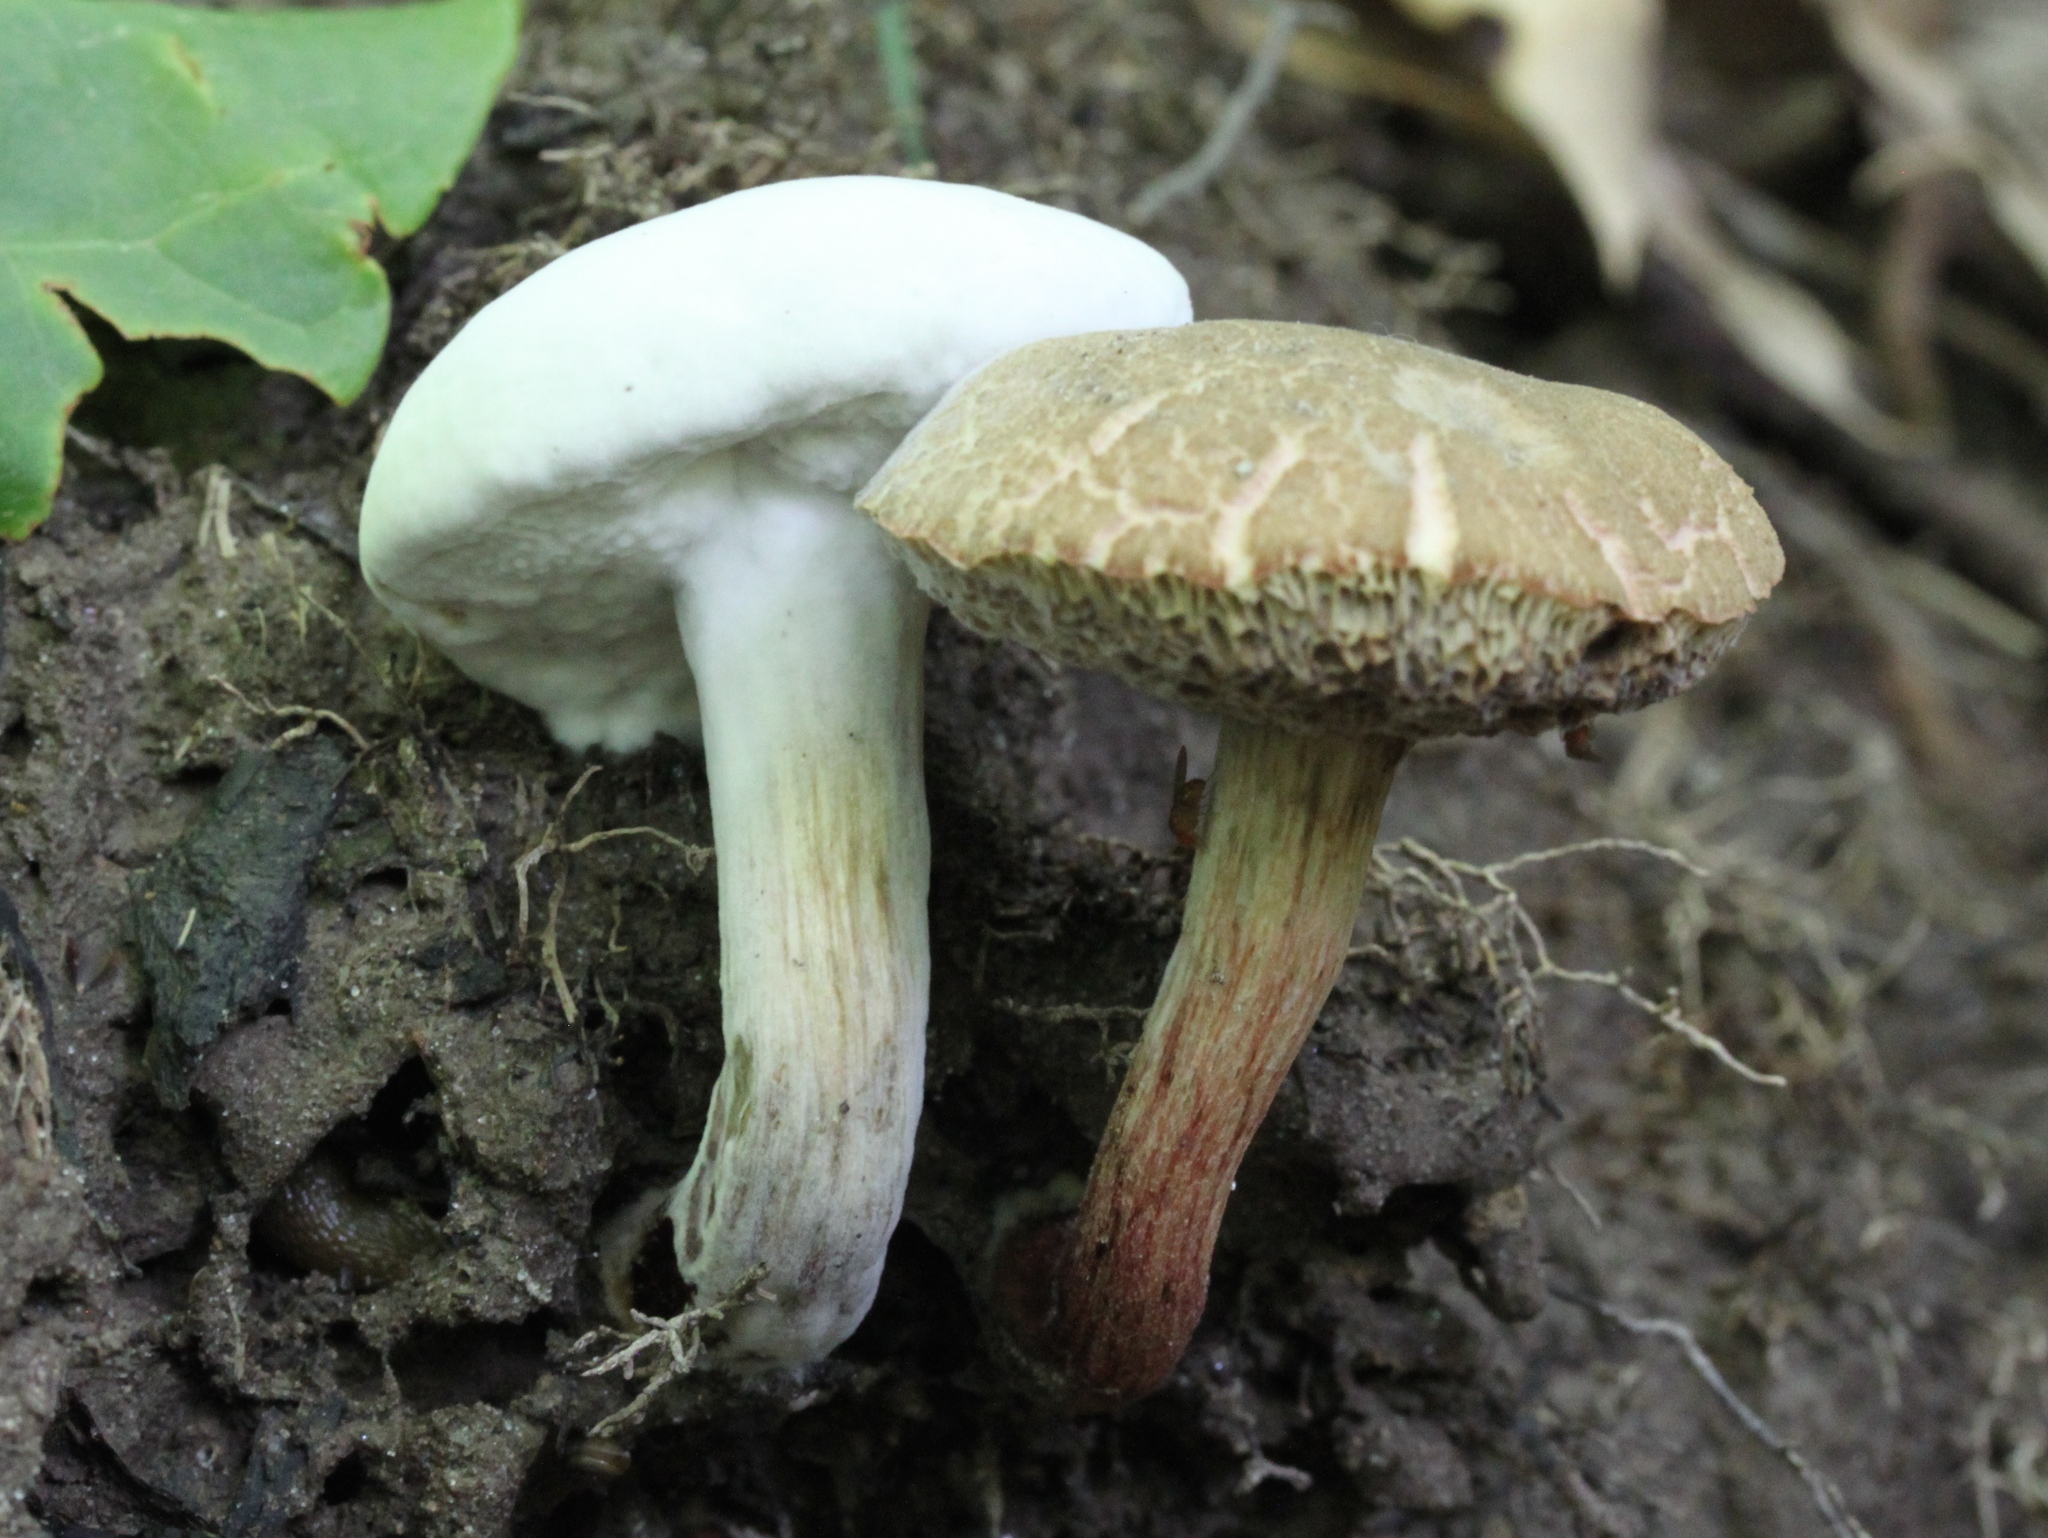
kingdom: Fungi
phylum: Ascomycota
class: Sordariomycetes
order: Hypocreales
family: Hypocreaceae
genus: Hypomyces
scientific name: Hypomyces chrysospermus
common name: Bolete mould
